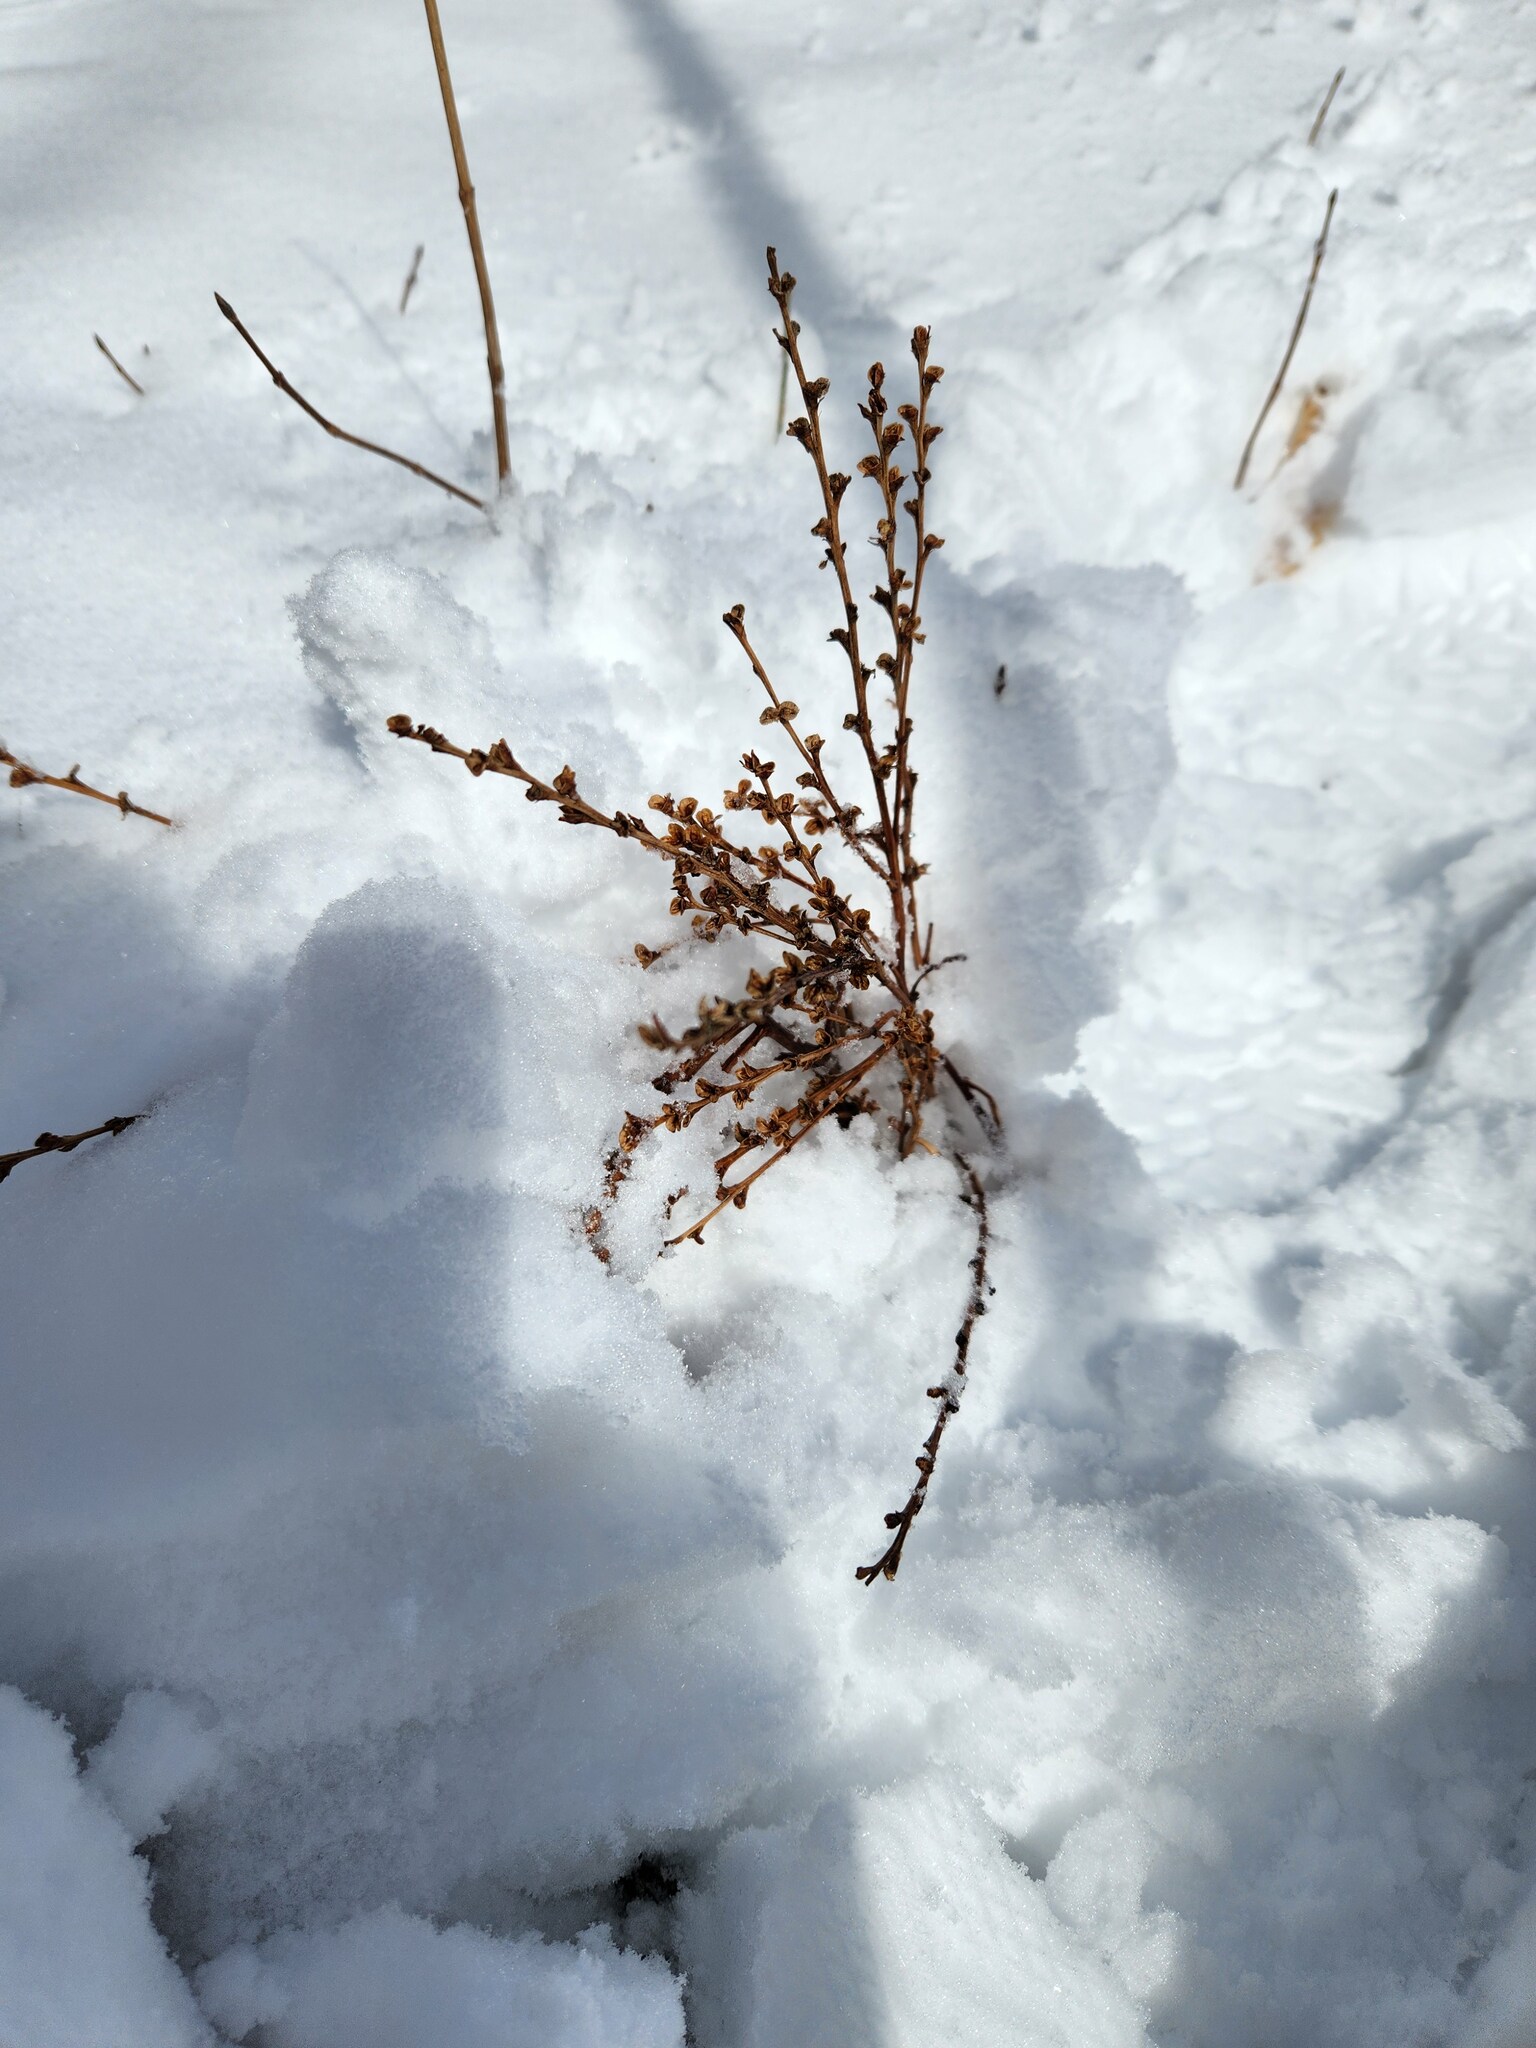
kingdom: Plantae
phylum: Tracheophyta
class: Magnoliopsida
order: Lamiales
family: Orobanchaceae
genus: Epifagus
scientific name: Epifagus virginiana
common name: Beechdrops
